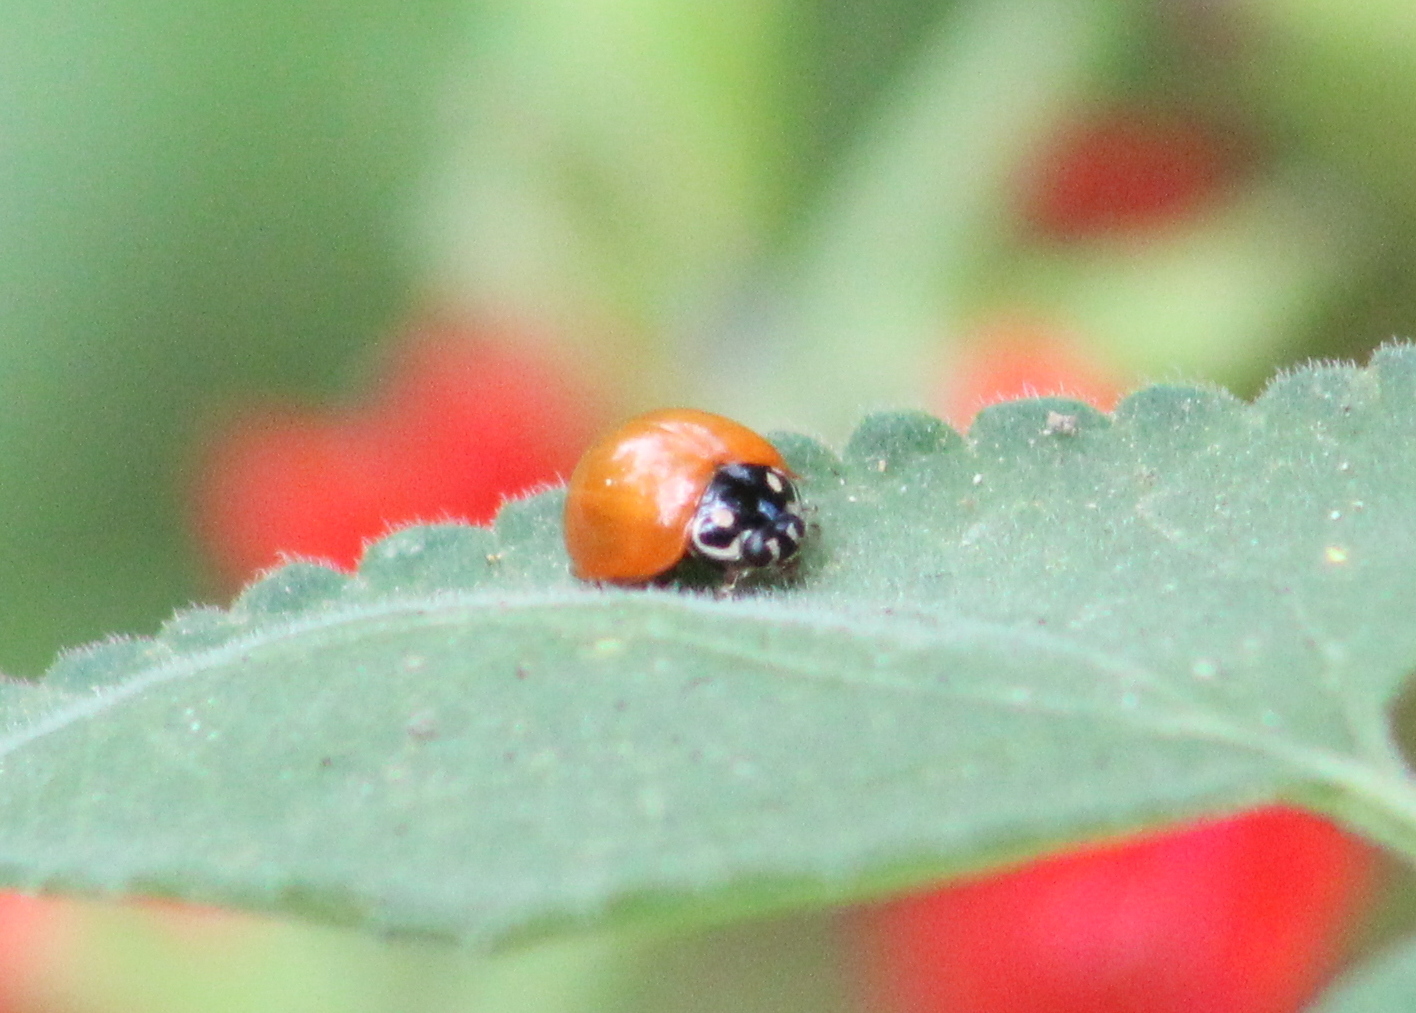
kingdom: Animalia
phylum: Arthropoda
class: Insecta
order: Coleoptera
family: Coccinellidae
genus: Cycloneda
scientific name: Cycloneda sanguinea
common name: Ladybird beetle
